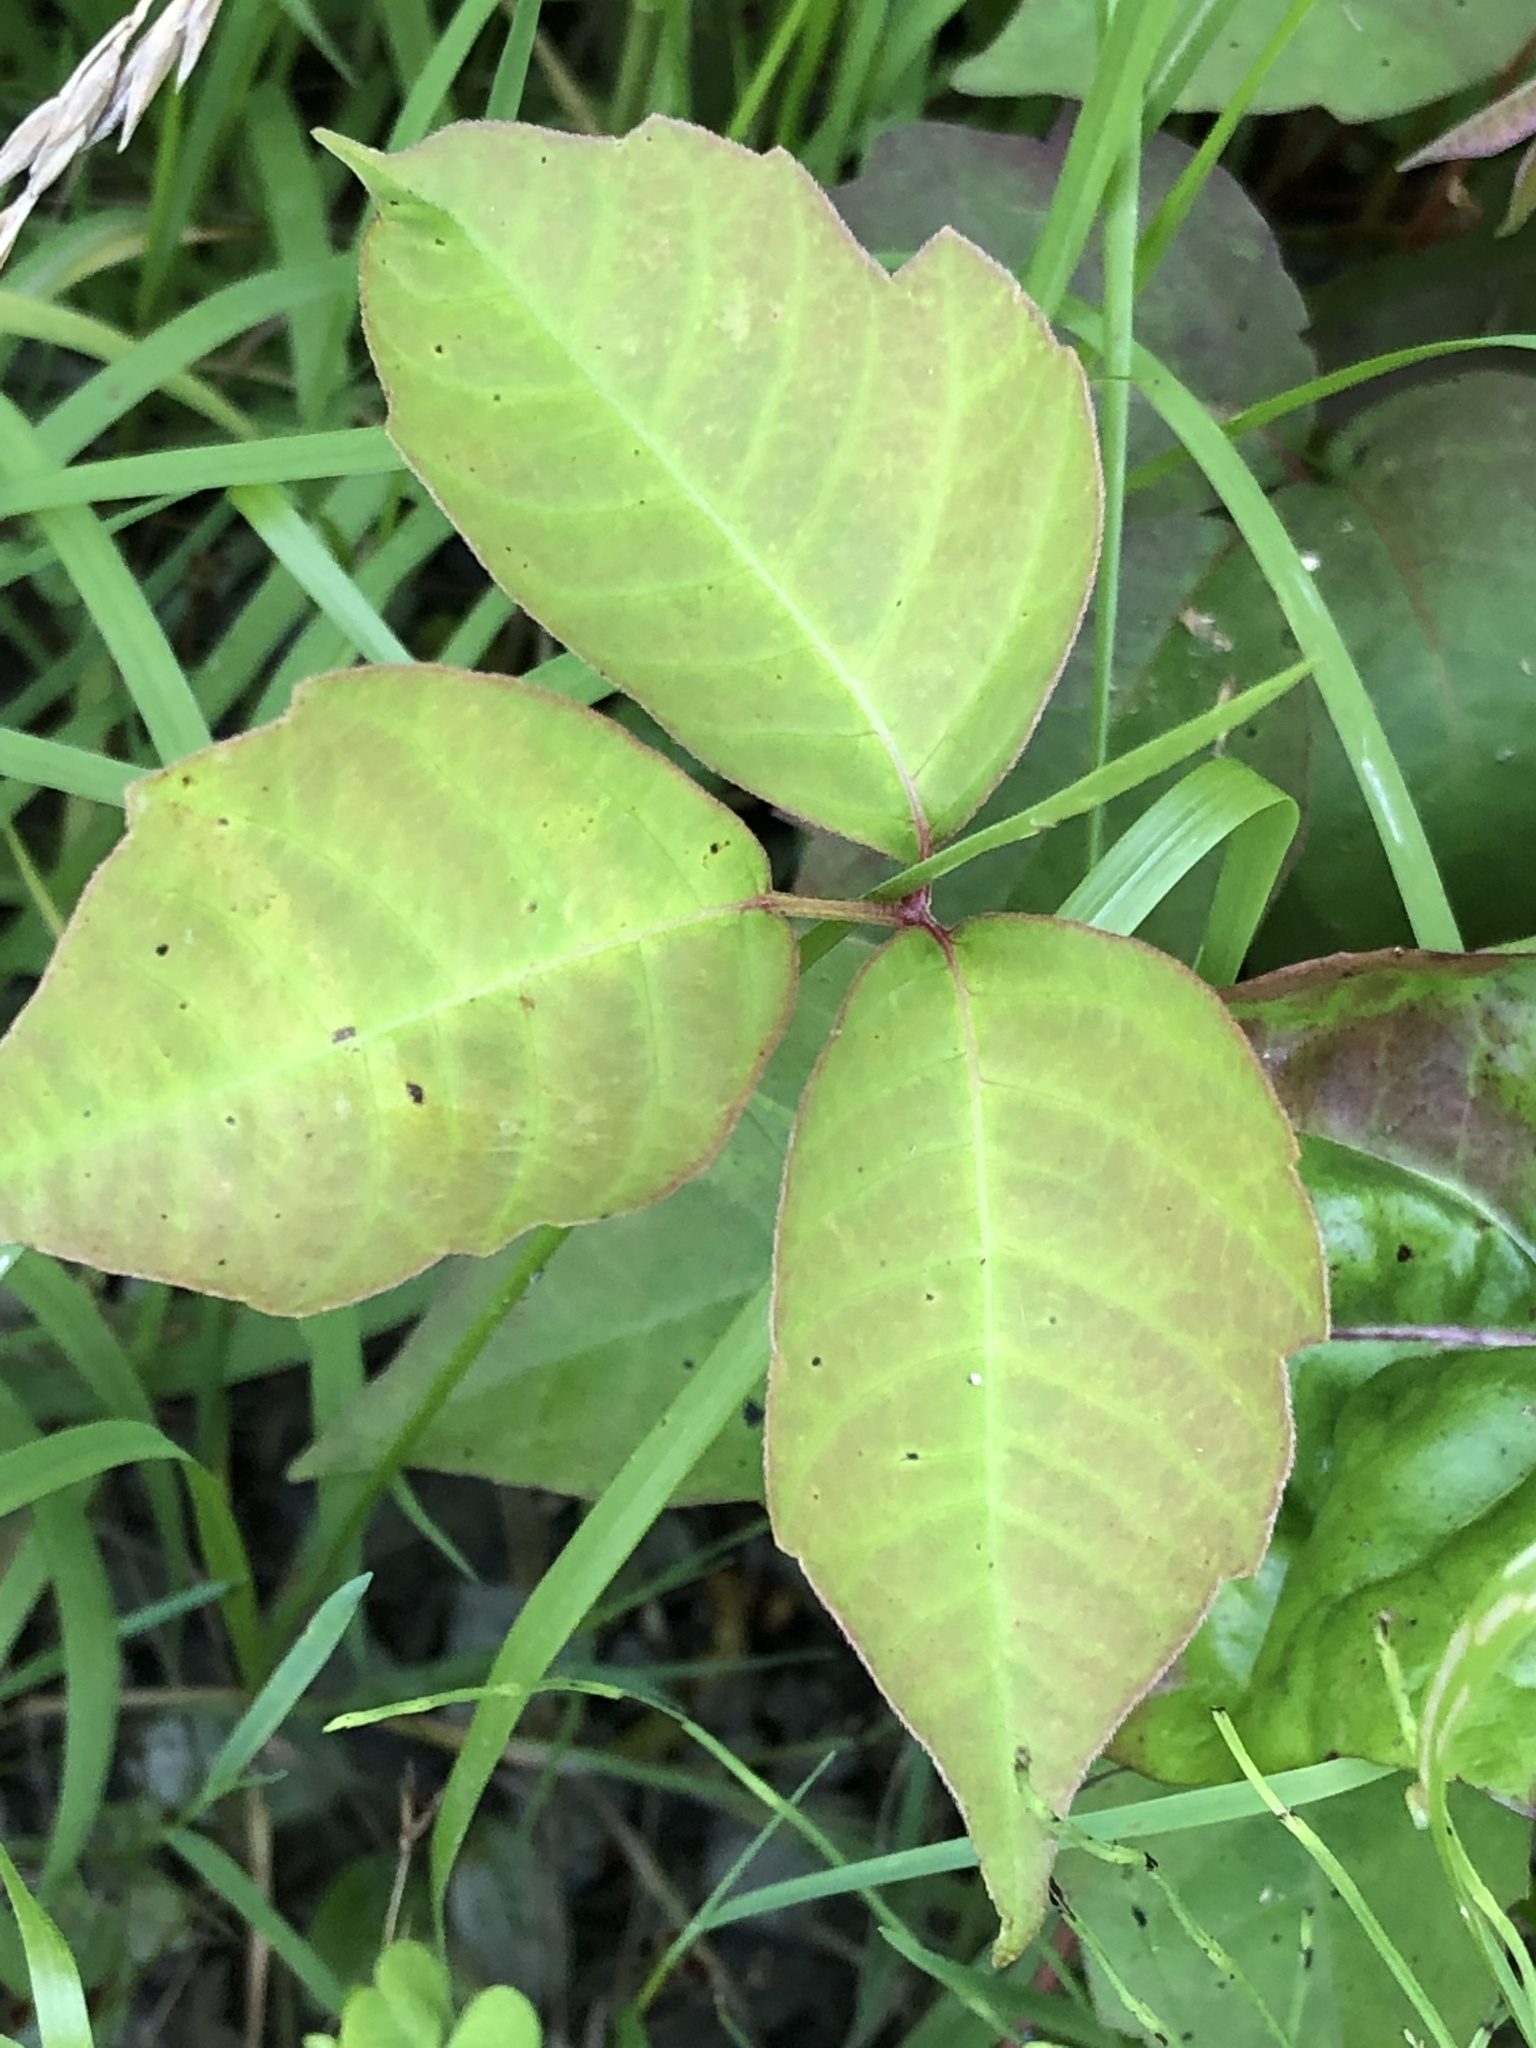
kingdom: Plantae
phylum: Tracheophyta
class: Magnoliopsida
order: Sapindales
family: Anacardiaceae
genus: Toxicodendron
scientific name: Toxicodendron radicans
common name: Poison ivy
